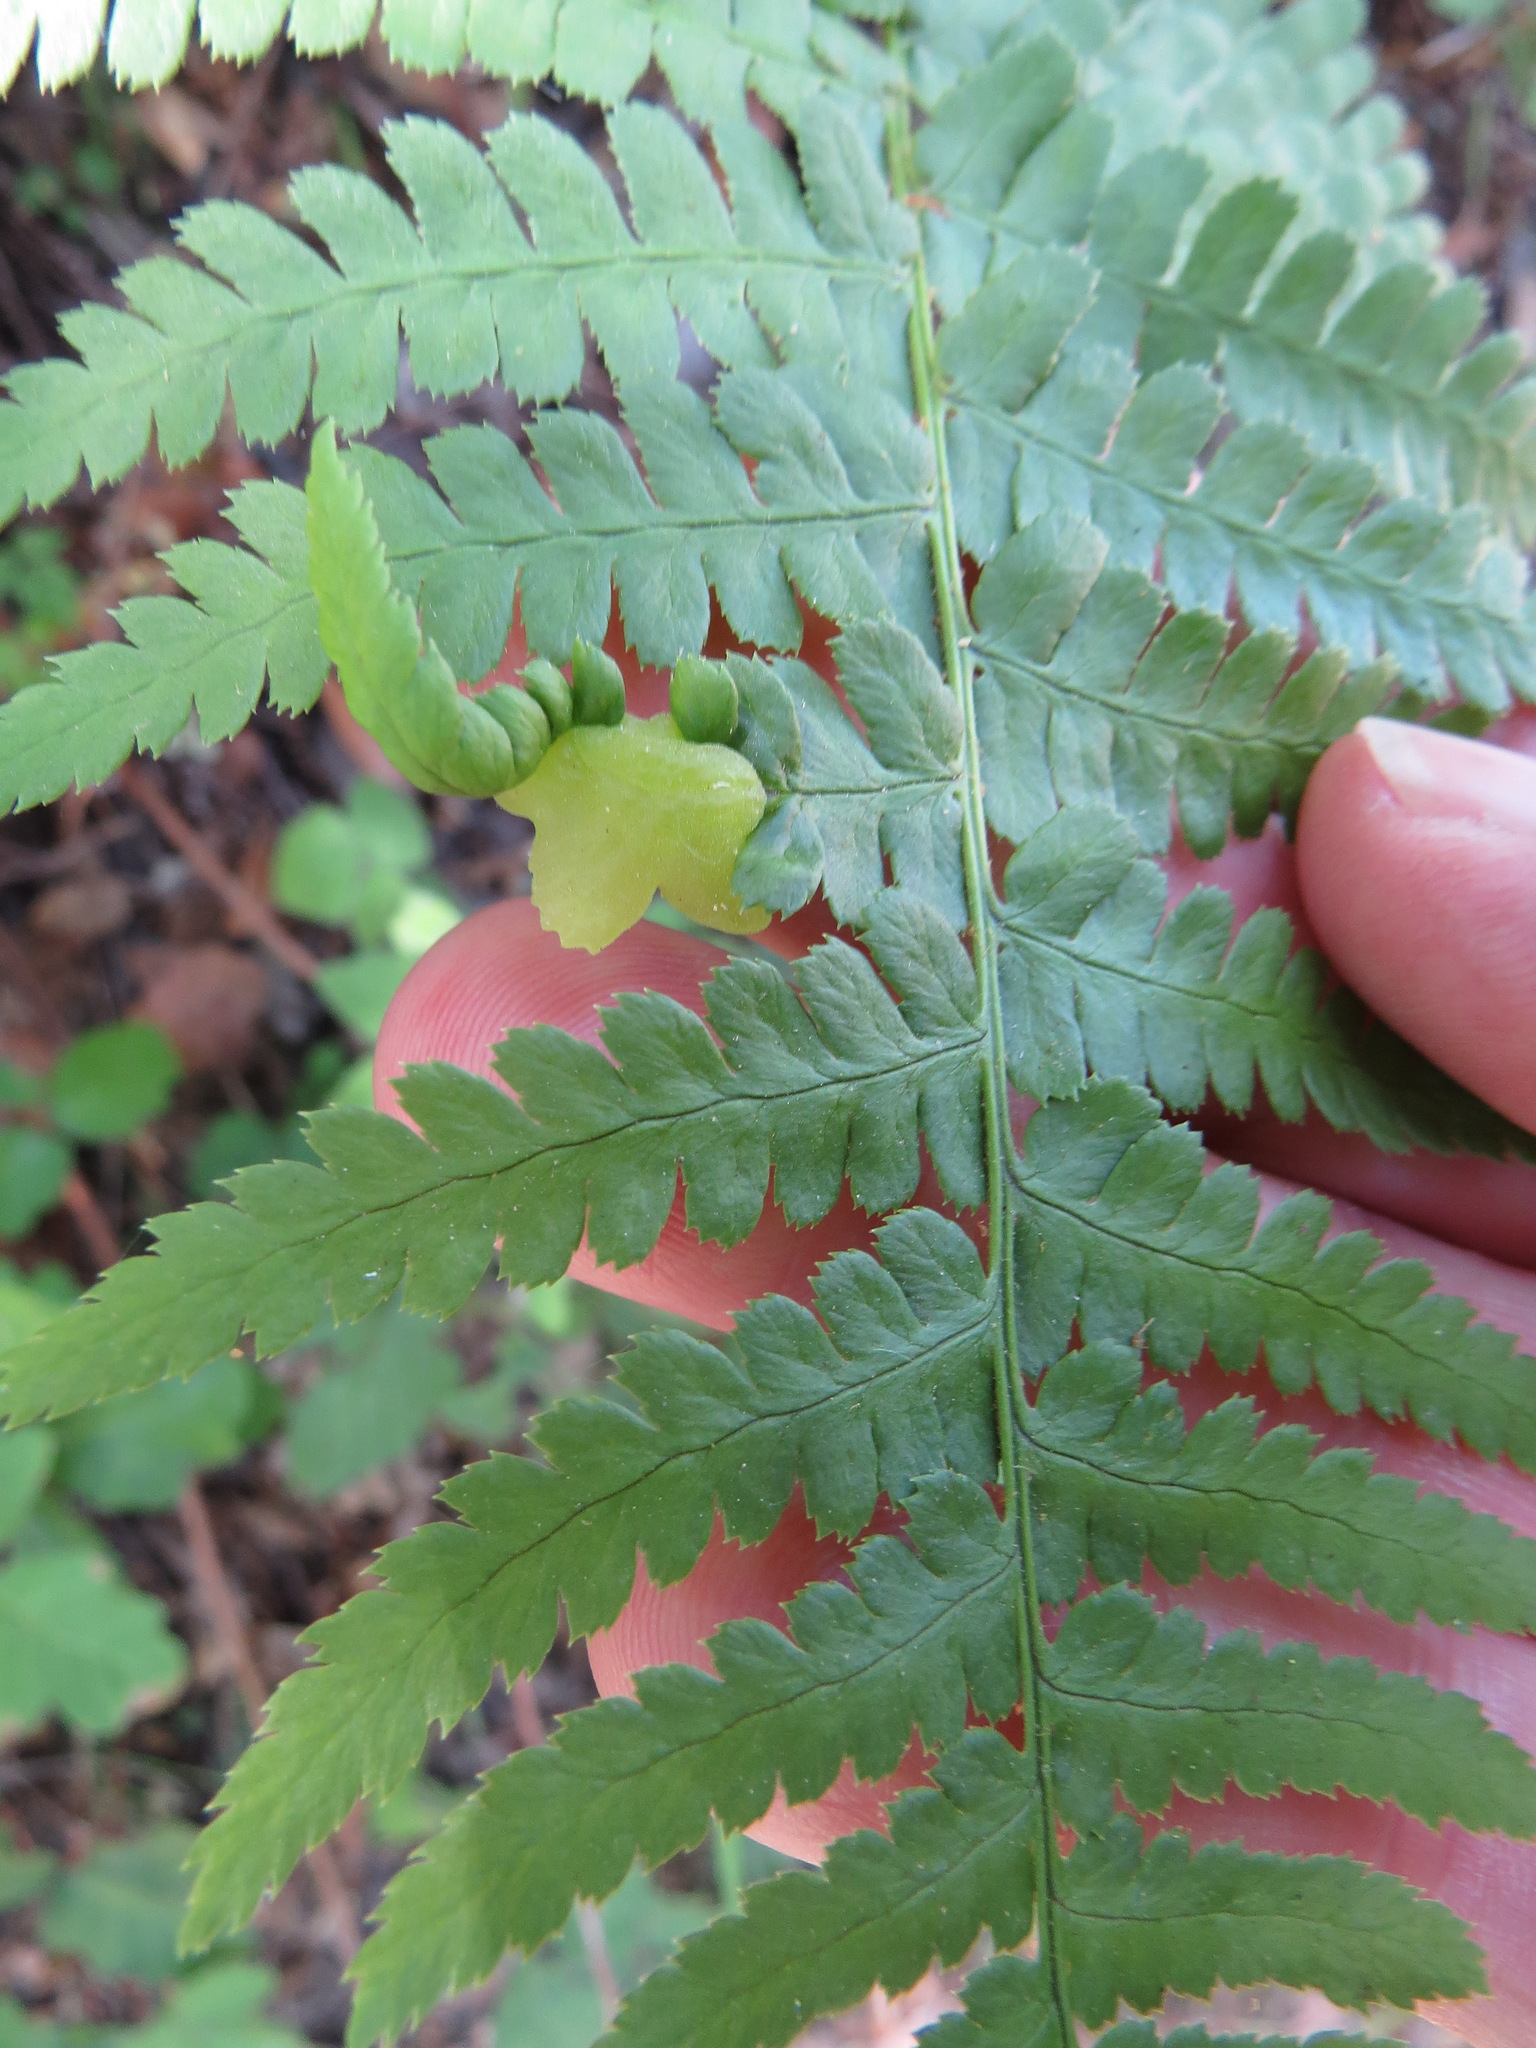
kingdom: Fungi
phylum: Ascomycota
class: Taphrinomycetes
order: Taphrinales
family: Taphrinaceae
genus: Taphrina
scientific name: Taphrina californica
